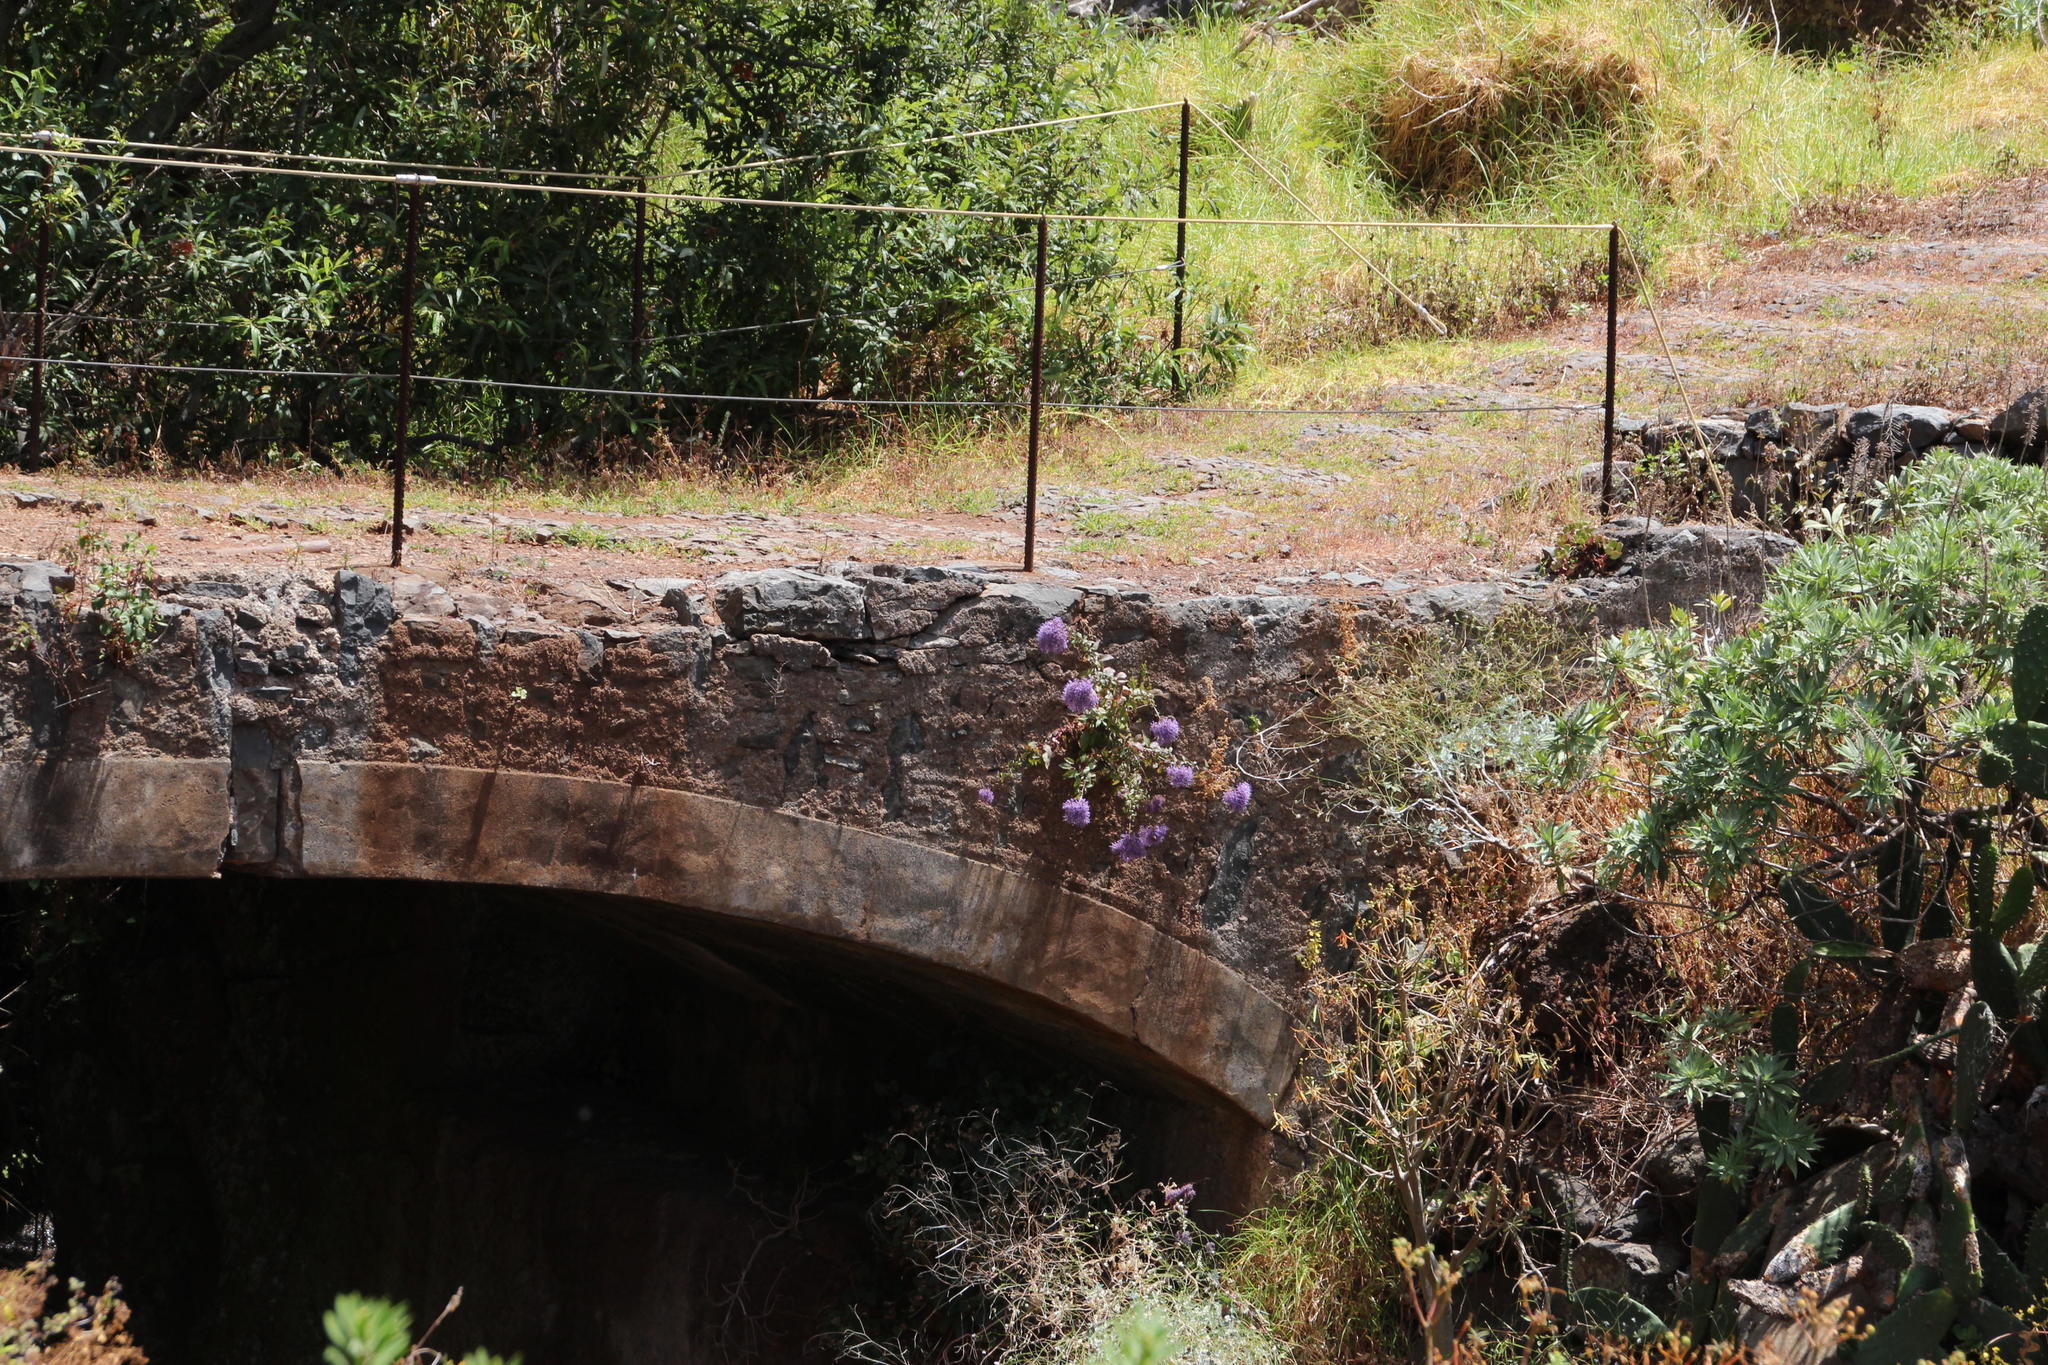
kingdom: Plantae
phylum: Tracheophyta
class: Magnoliopsida
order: Asterales
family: Campanulaceae
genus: Trachelium
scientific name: Trachelium caeruleum
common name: Throatwort
